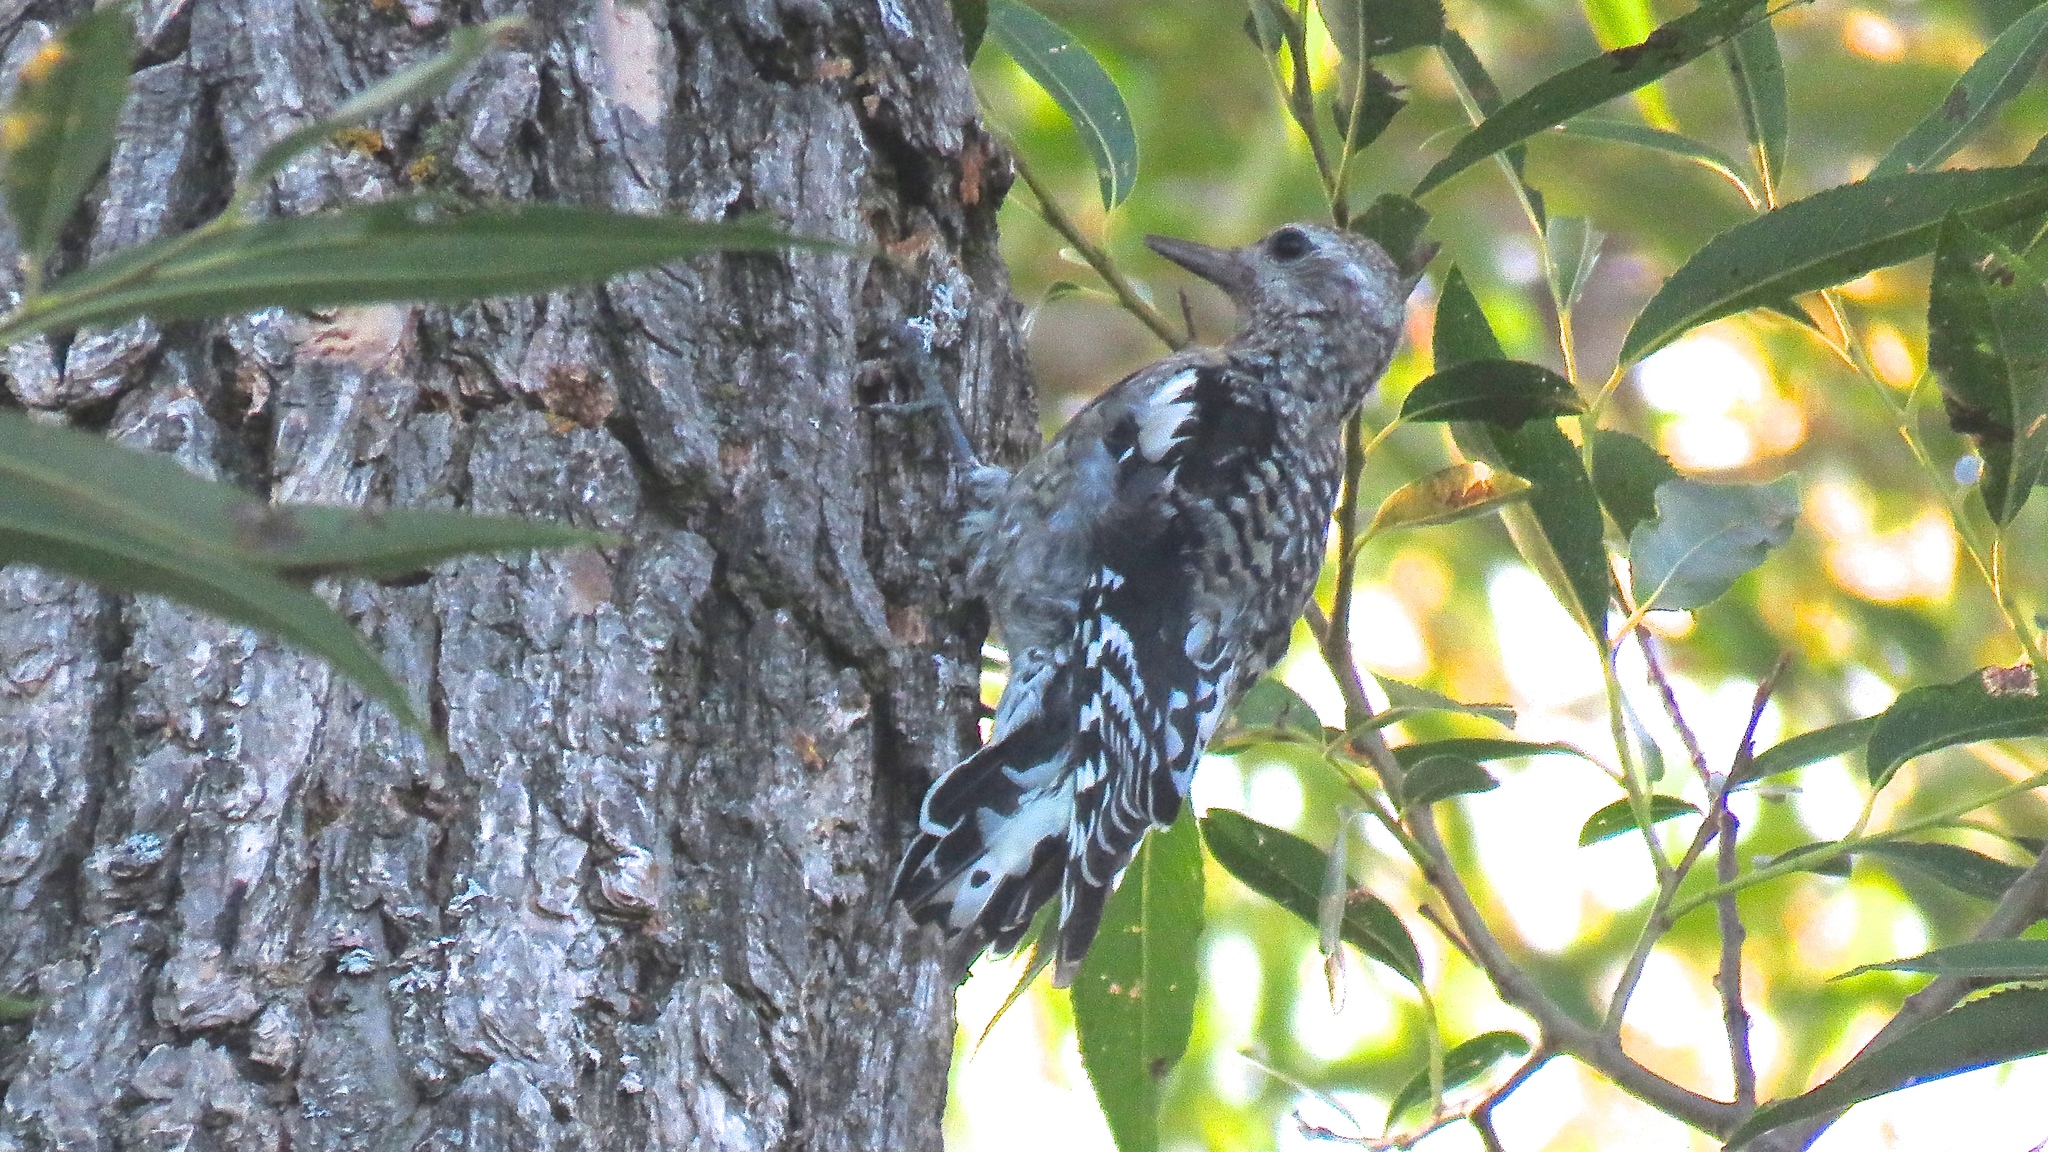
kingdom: Animalia
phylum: Chordata
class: Aves
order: Piciformes
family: Picidae
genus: Sphyrapicus
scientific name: Sphyrapicus varius
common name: Yellow-bellied sapsucker
